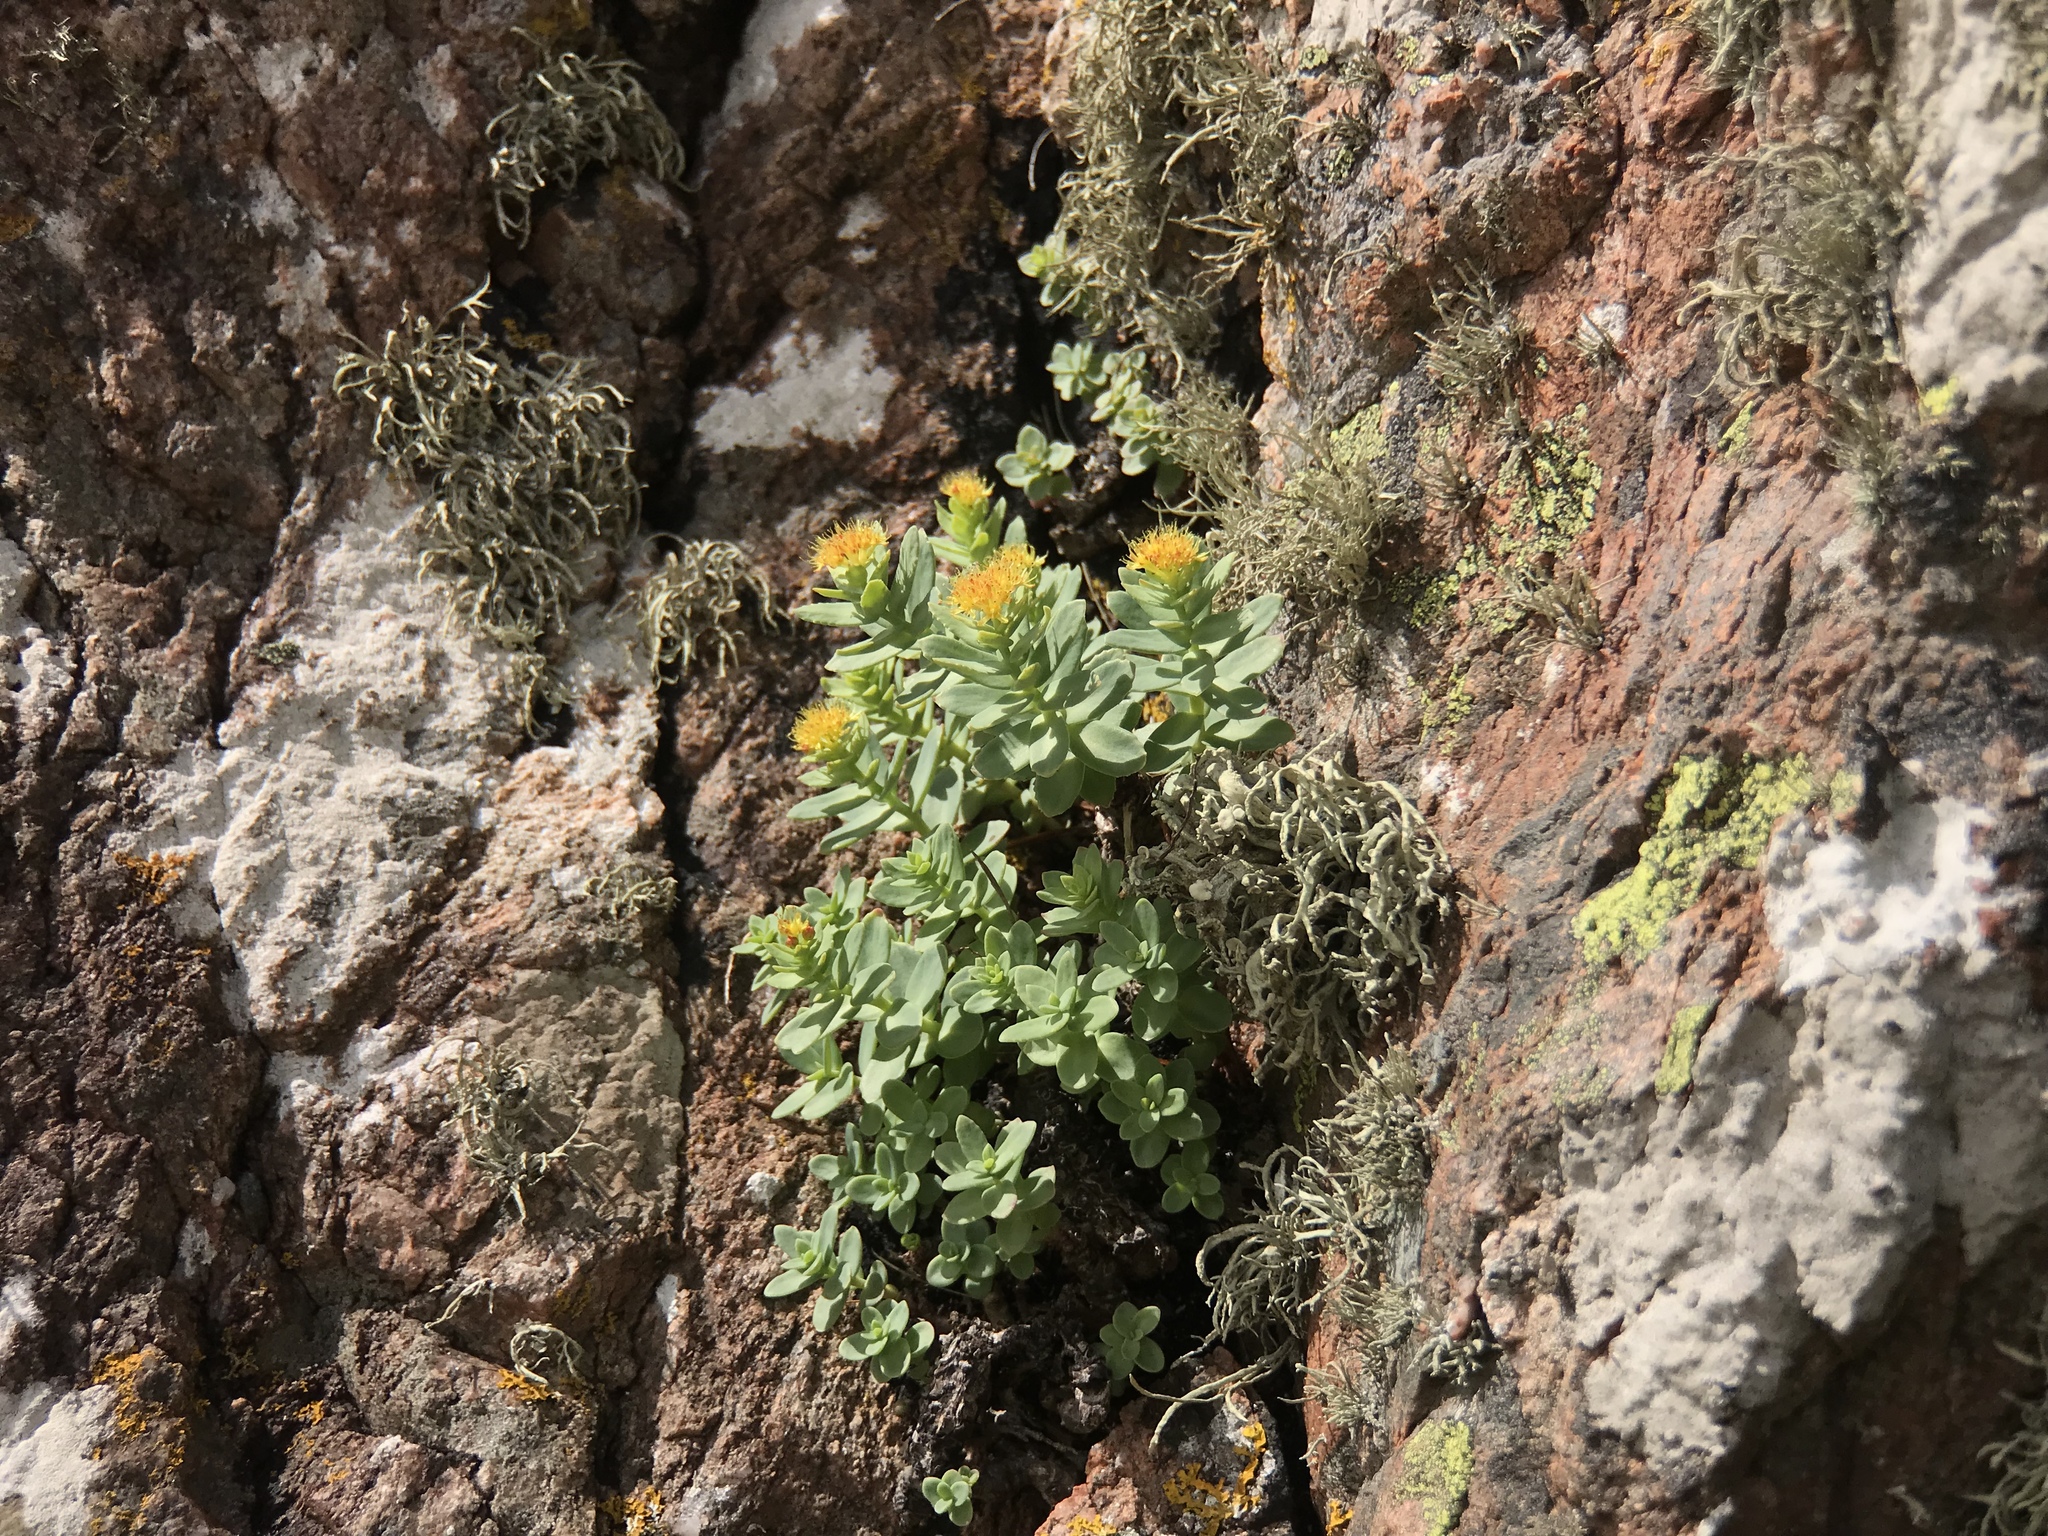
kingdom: Plantae
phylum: Tracheophyta
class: Magnoliopsida
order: Saxifragales
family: Crassulaceae
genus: Rhodiola
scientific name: Rhodiola rosea
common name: Roseroot
